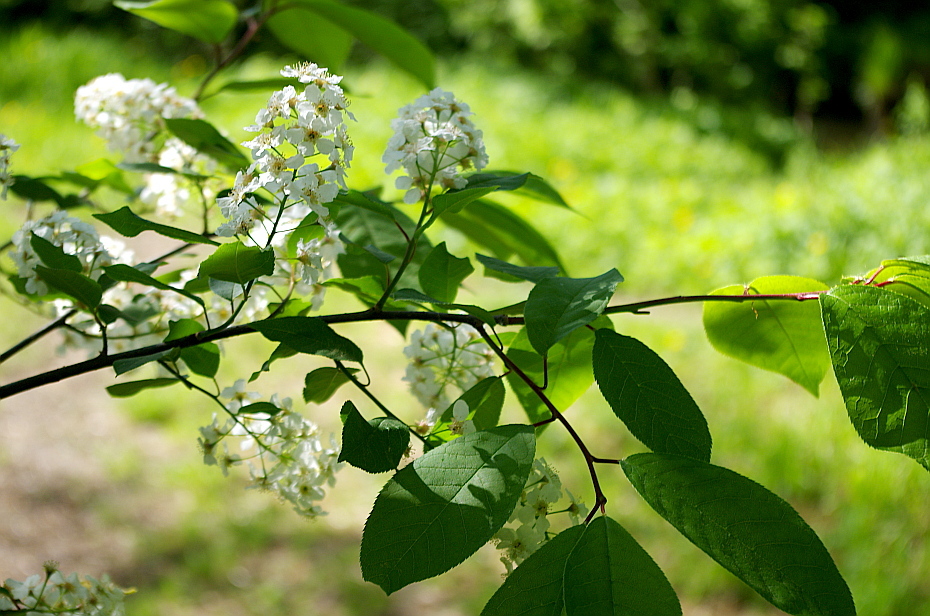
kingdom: Plantae
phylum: Tracheophyta
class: Magnoliopsida
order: Rosales
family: Rosaceae
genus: Prunus
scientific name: Prunus padus
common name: Bird cherry
